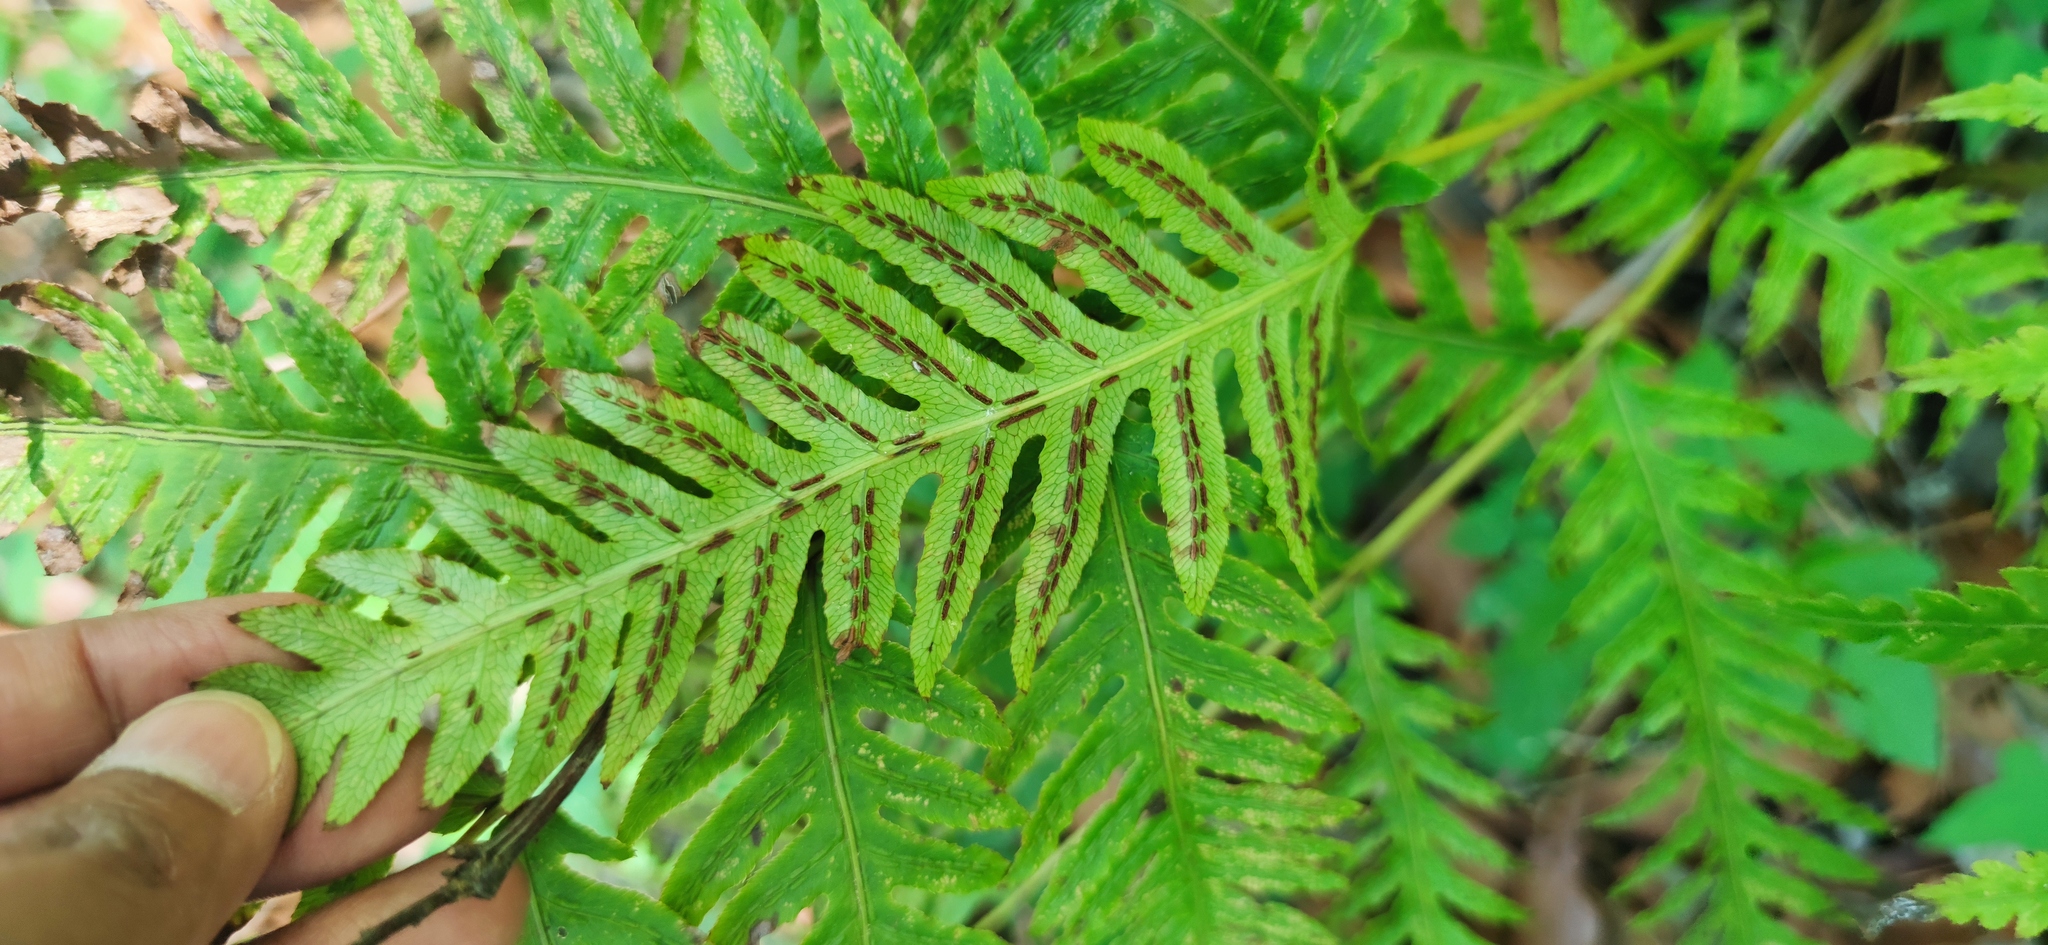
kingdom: Plantae
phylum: Tracheophyta
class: Polypodiopsida
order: Polypodiales
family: Blechnaceae
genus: Woodwardia
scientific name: Woodwardia spinulosa
